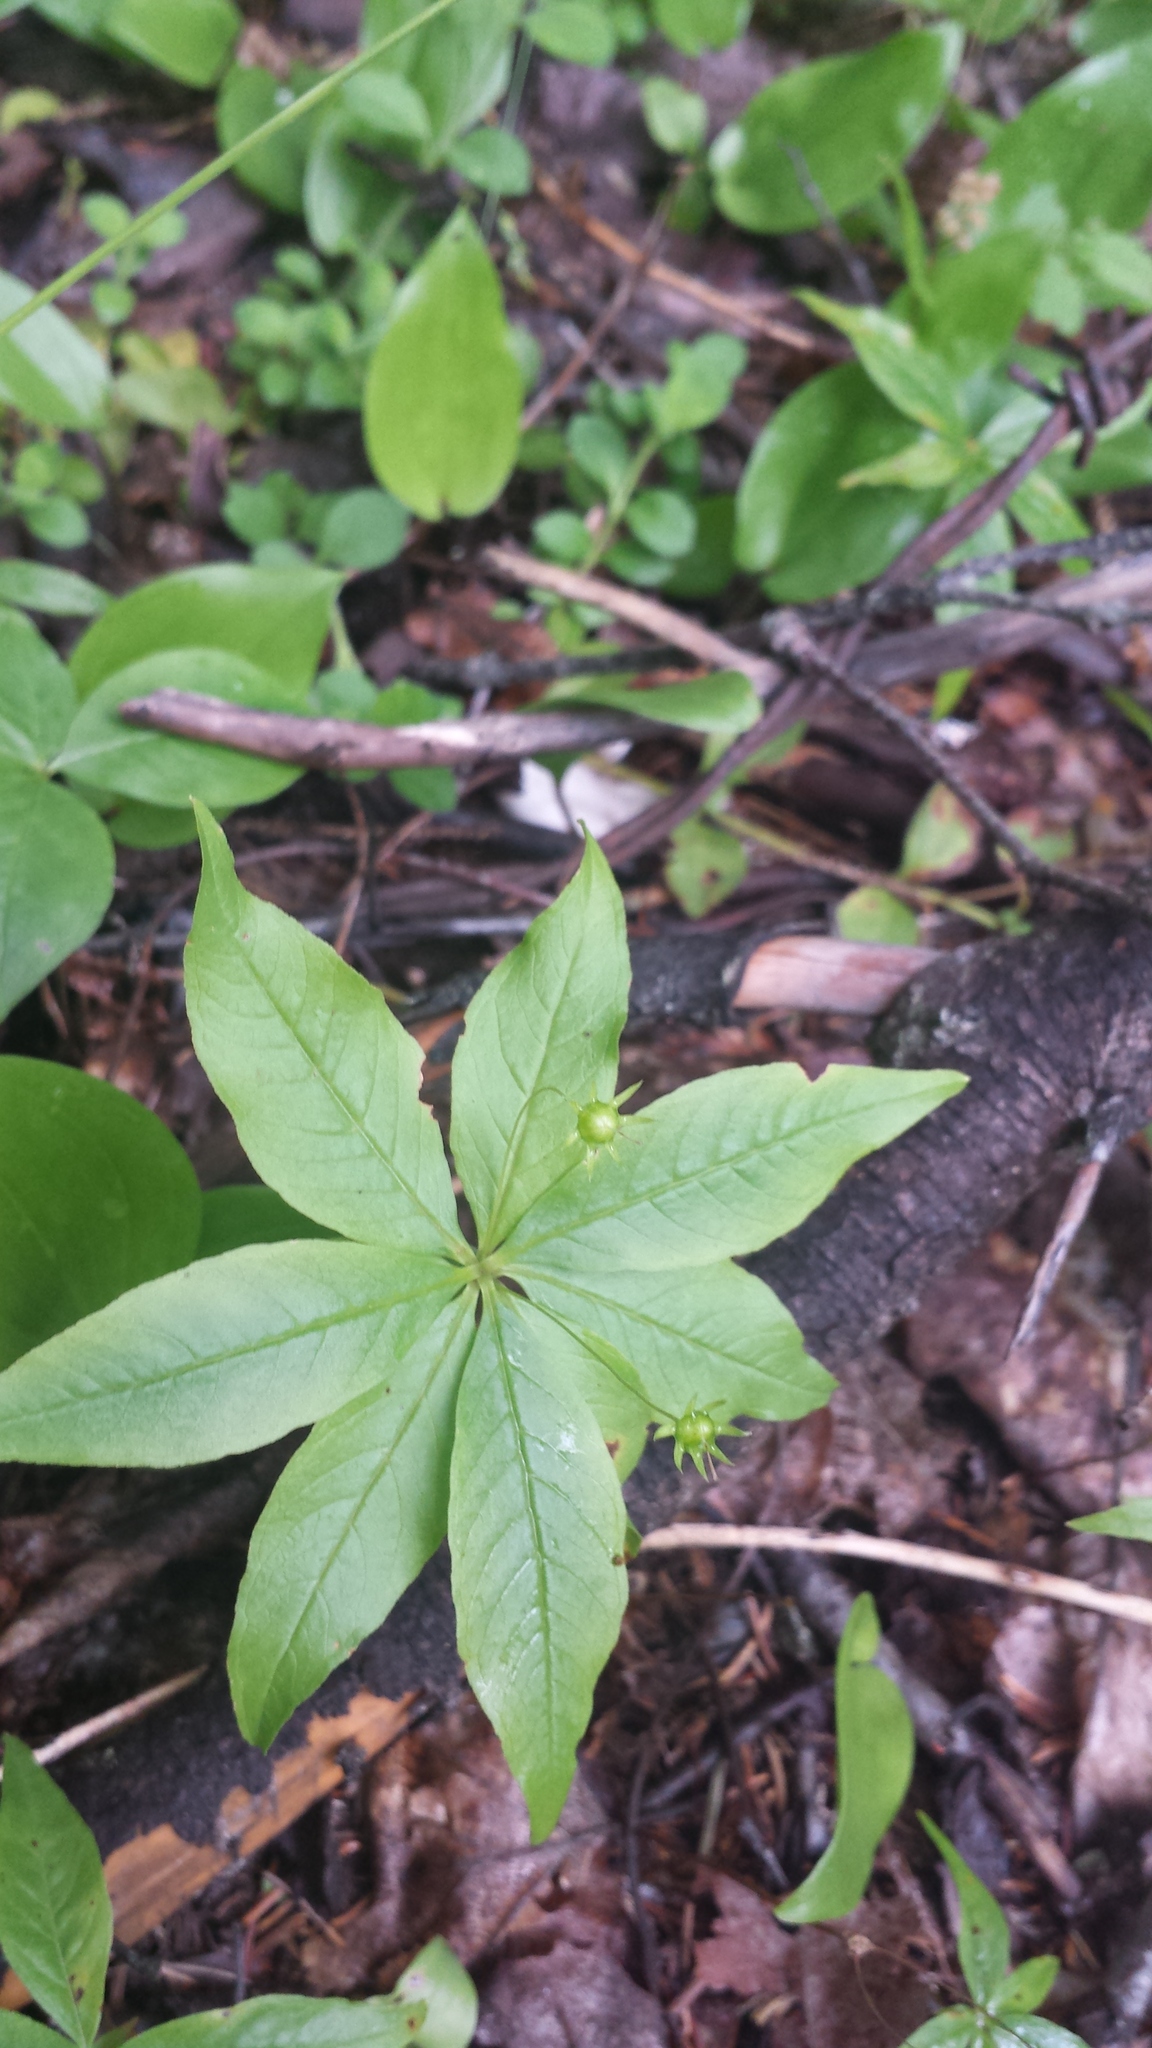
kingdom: Plantae
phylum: Tracheophyta
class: Magnoliopsida
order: Ericales
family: Primulaceae
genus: Lysimachia
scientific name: Lysimachia borealis
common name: American starflower
